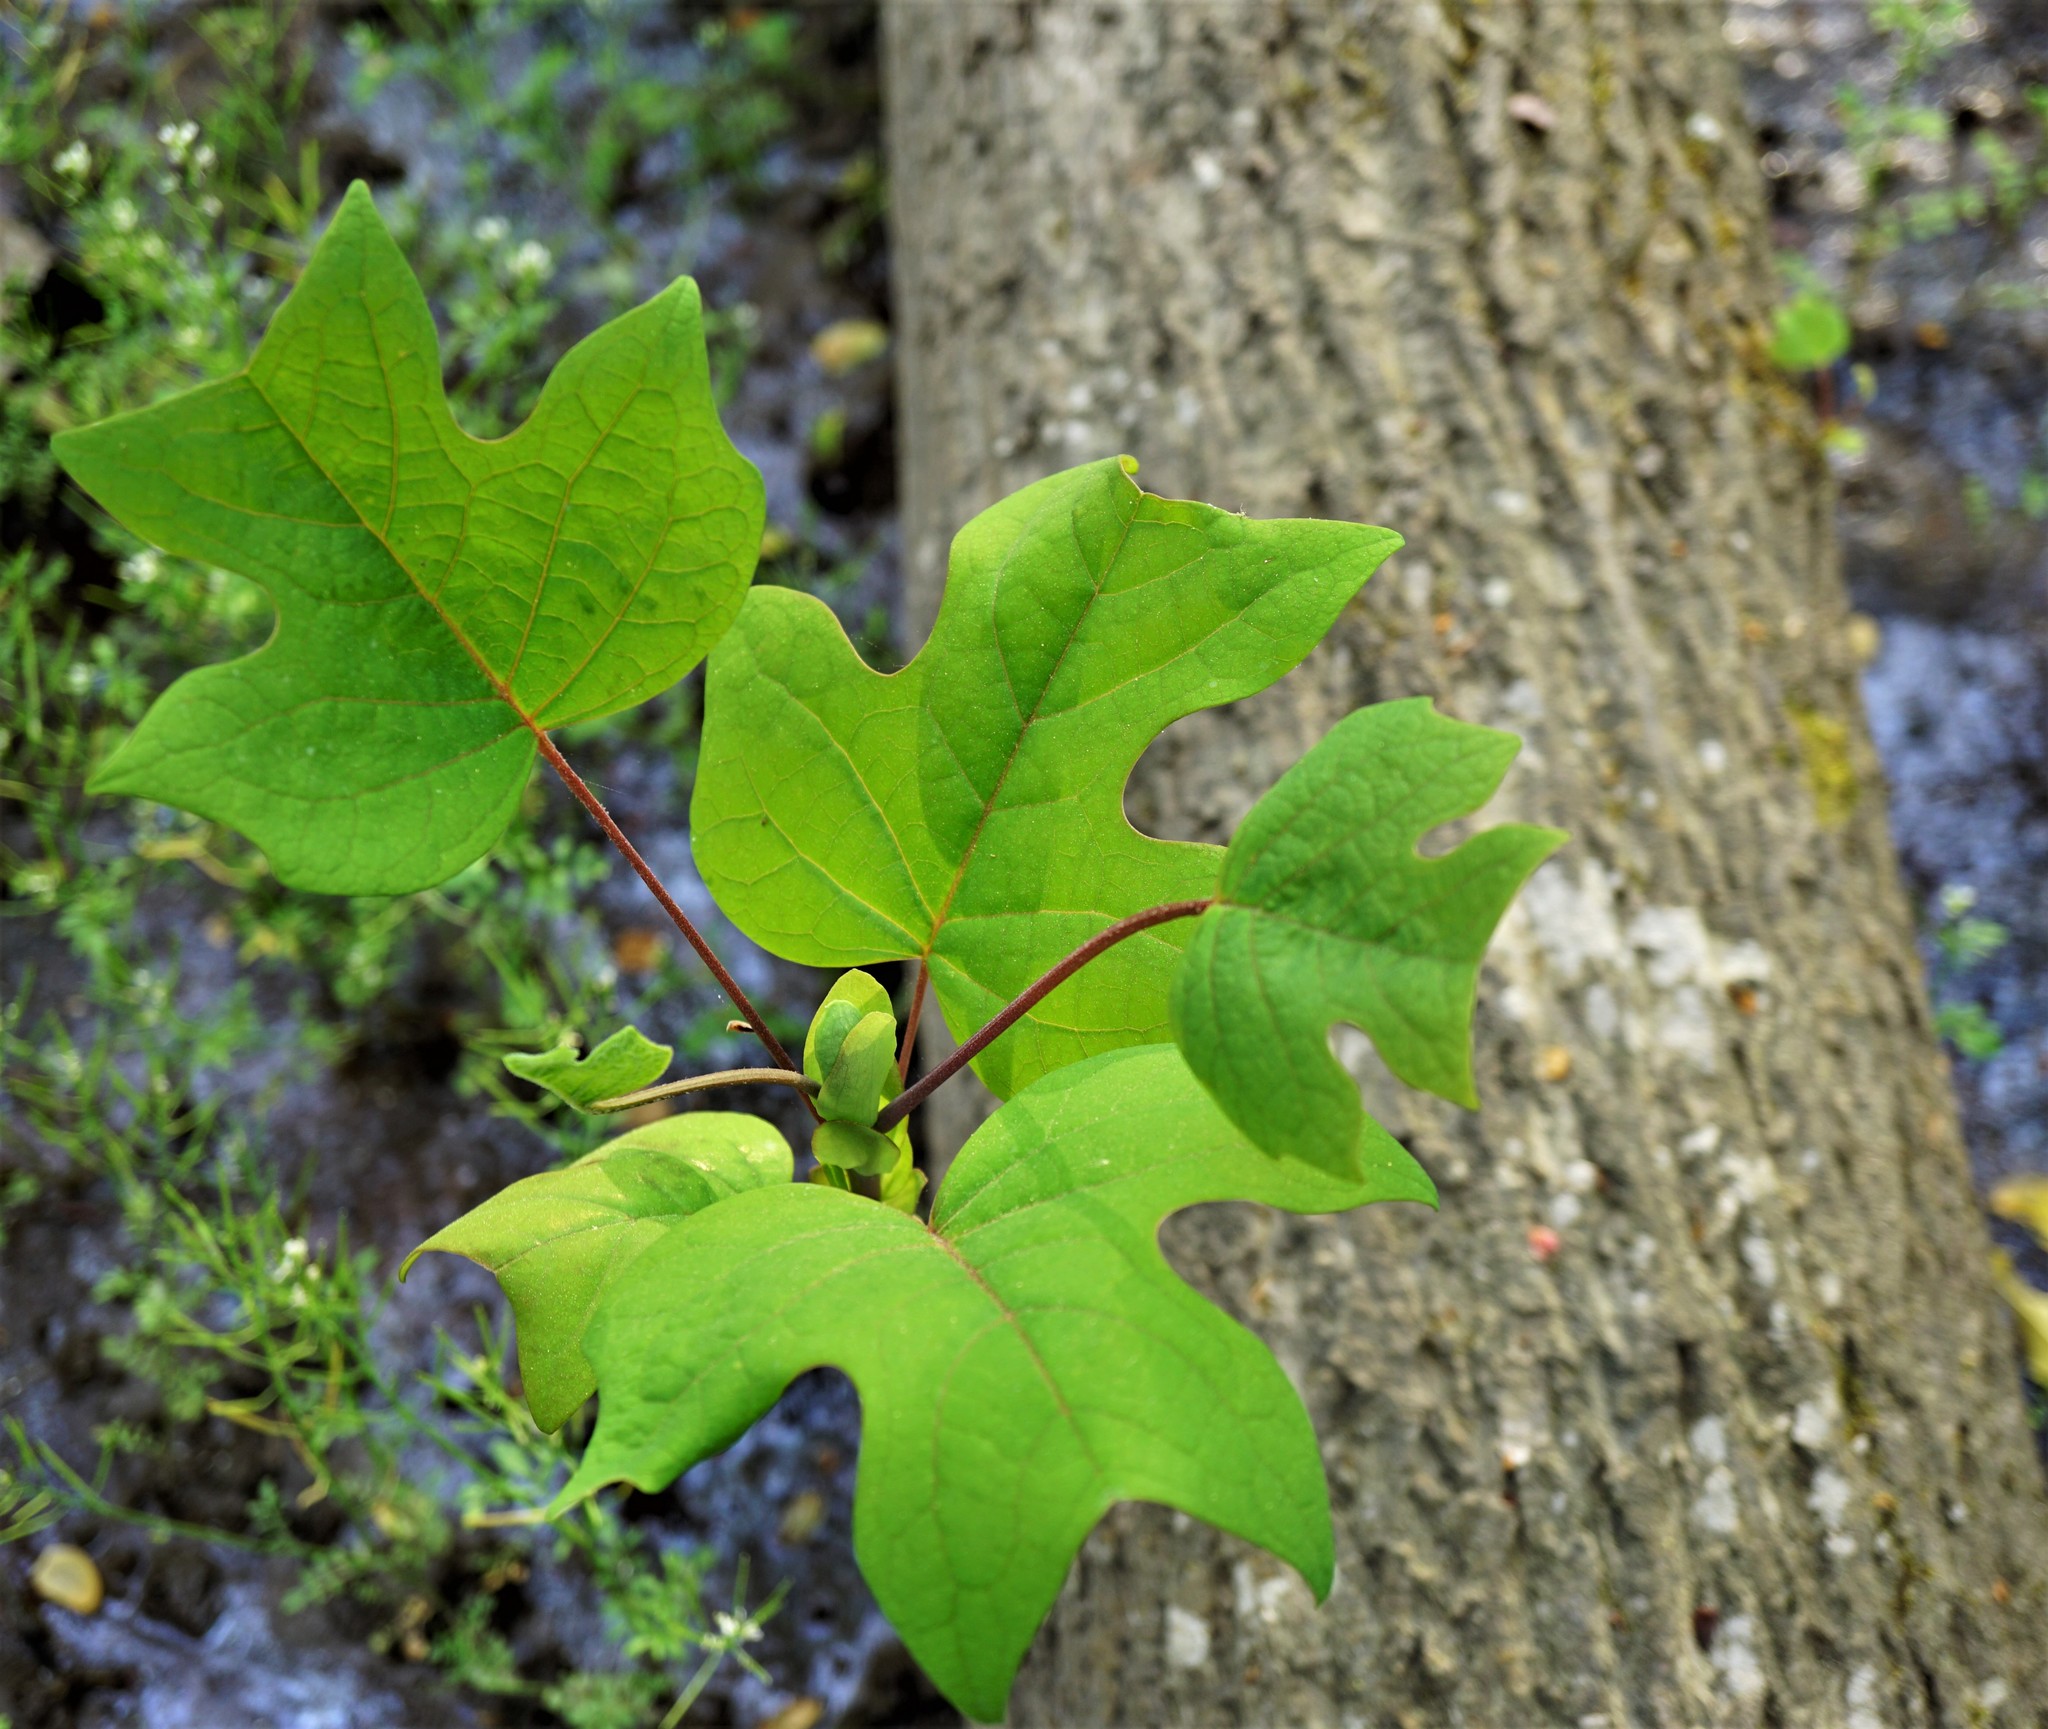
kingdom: Plantae
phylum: Tracheophyta
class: Magnoliopsida
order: Magnoliales
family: Magnoliaceae
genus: Liriodendron
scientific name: Liriodendron tulipifera
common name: Tulip tree
